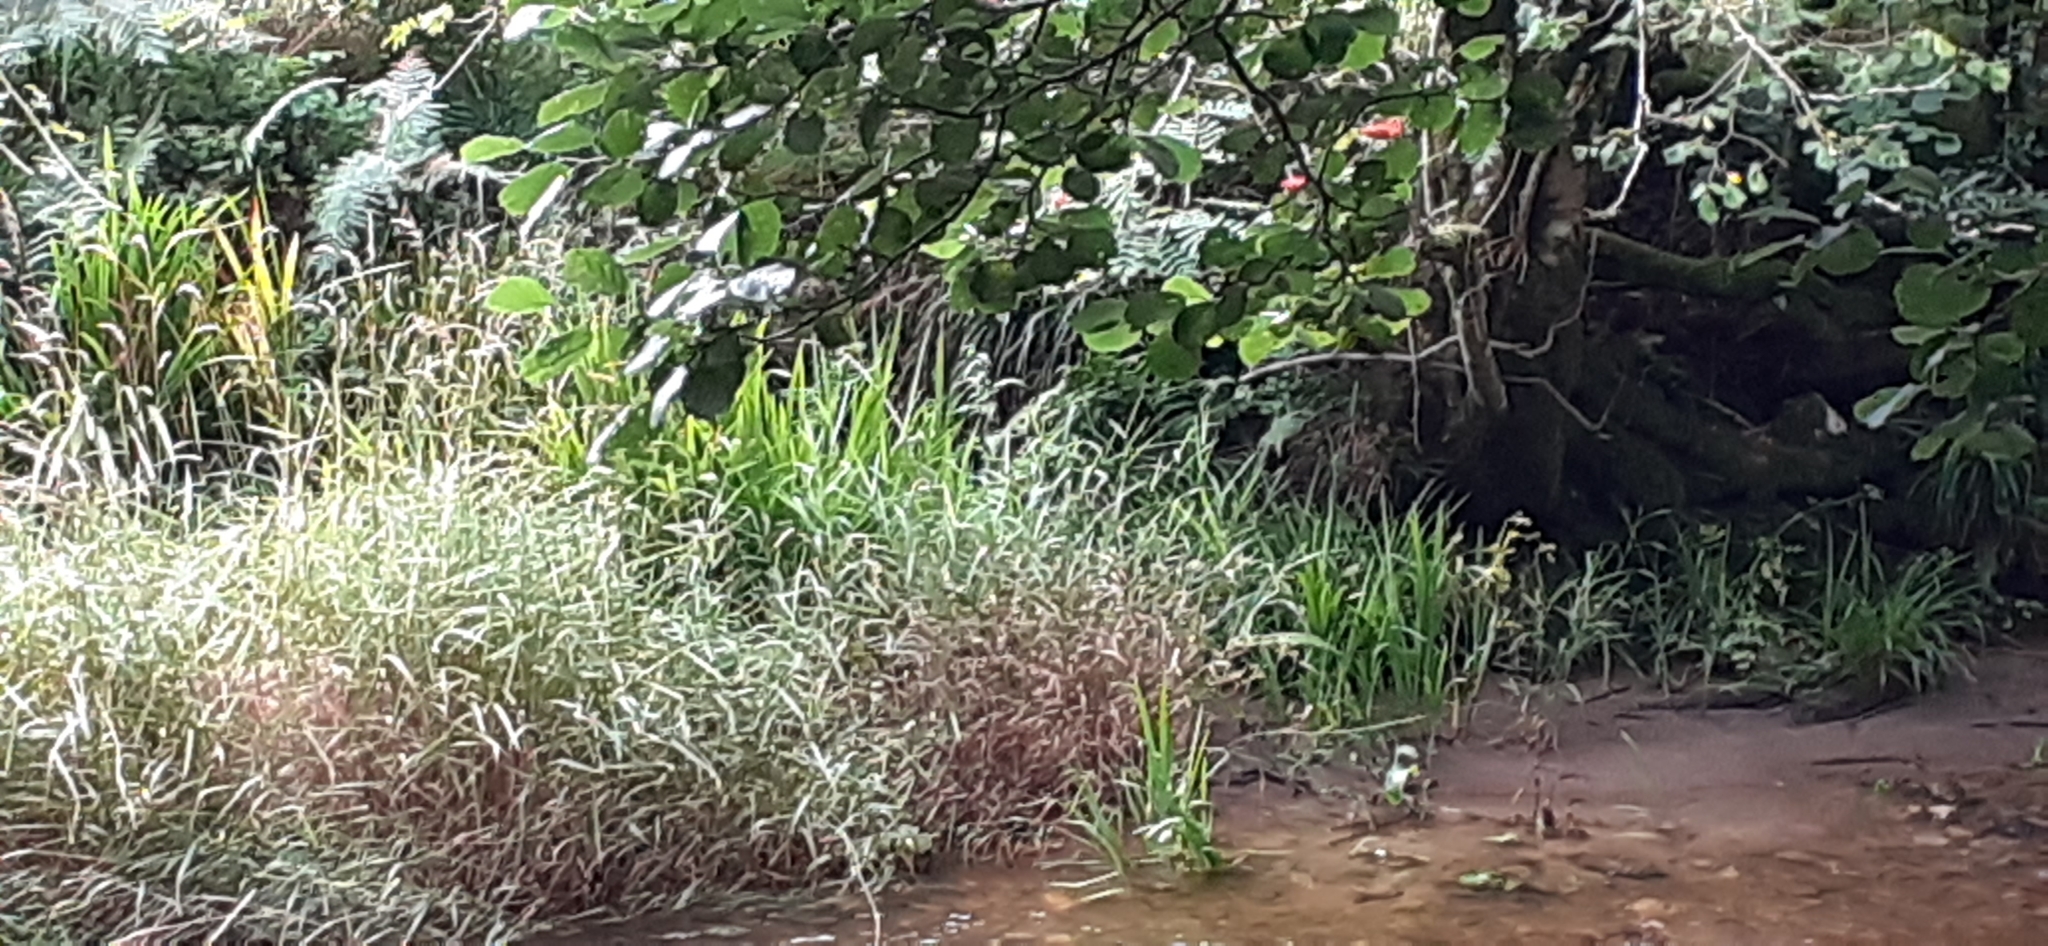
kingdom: Plantae
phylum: Tracheophyta
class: Liliopsida
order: Asparagales
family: Iridaceae
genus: Crocosmia
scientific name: Crocosmia crocosmiiflora
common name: Montbretia
